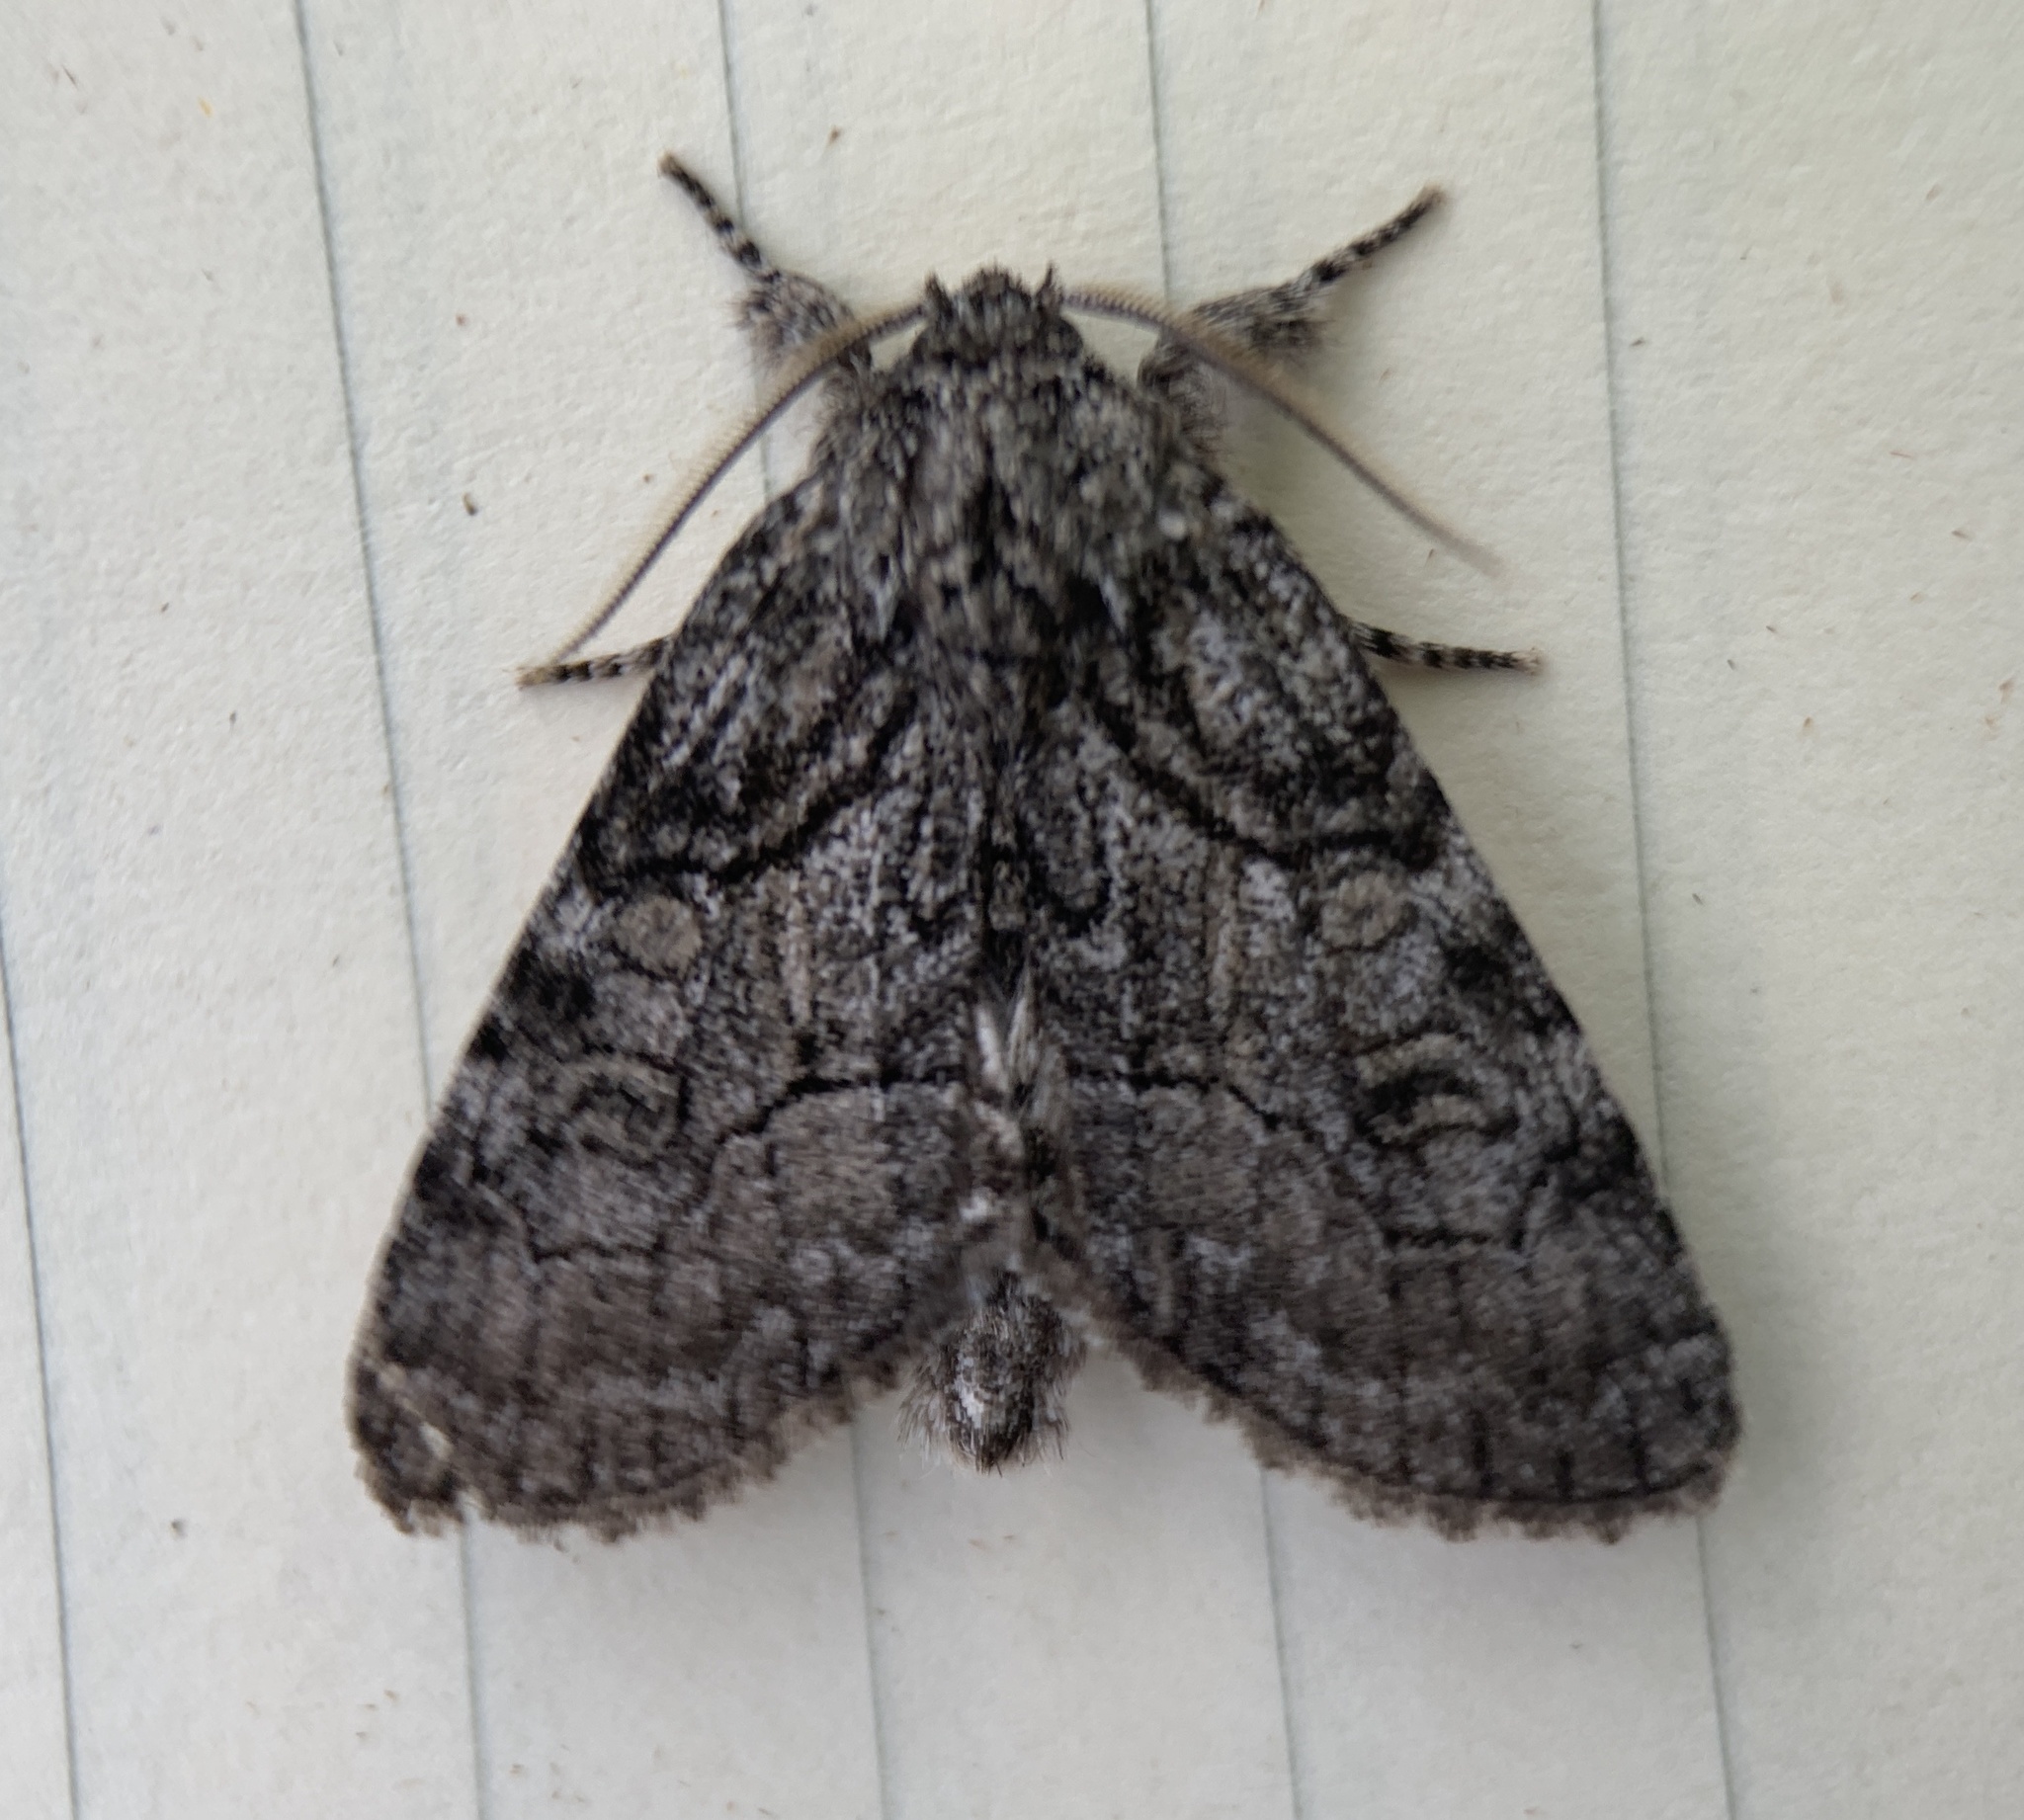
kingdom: Animalia
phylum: Arthropoda
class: Insecta
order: Lepidoptera
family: Noctuidae
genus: Raphia
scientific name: Raphia frater
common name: Brother
